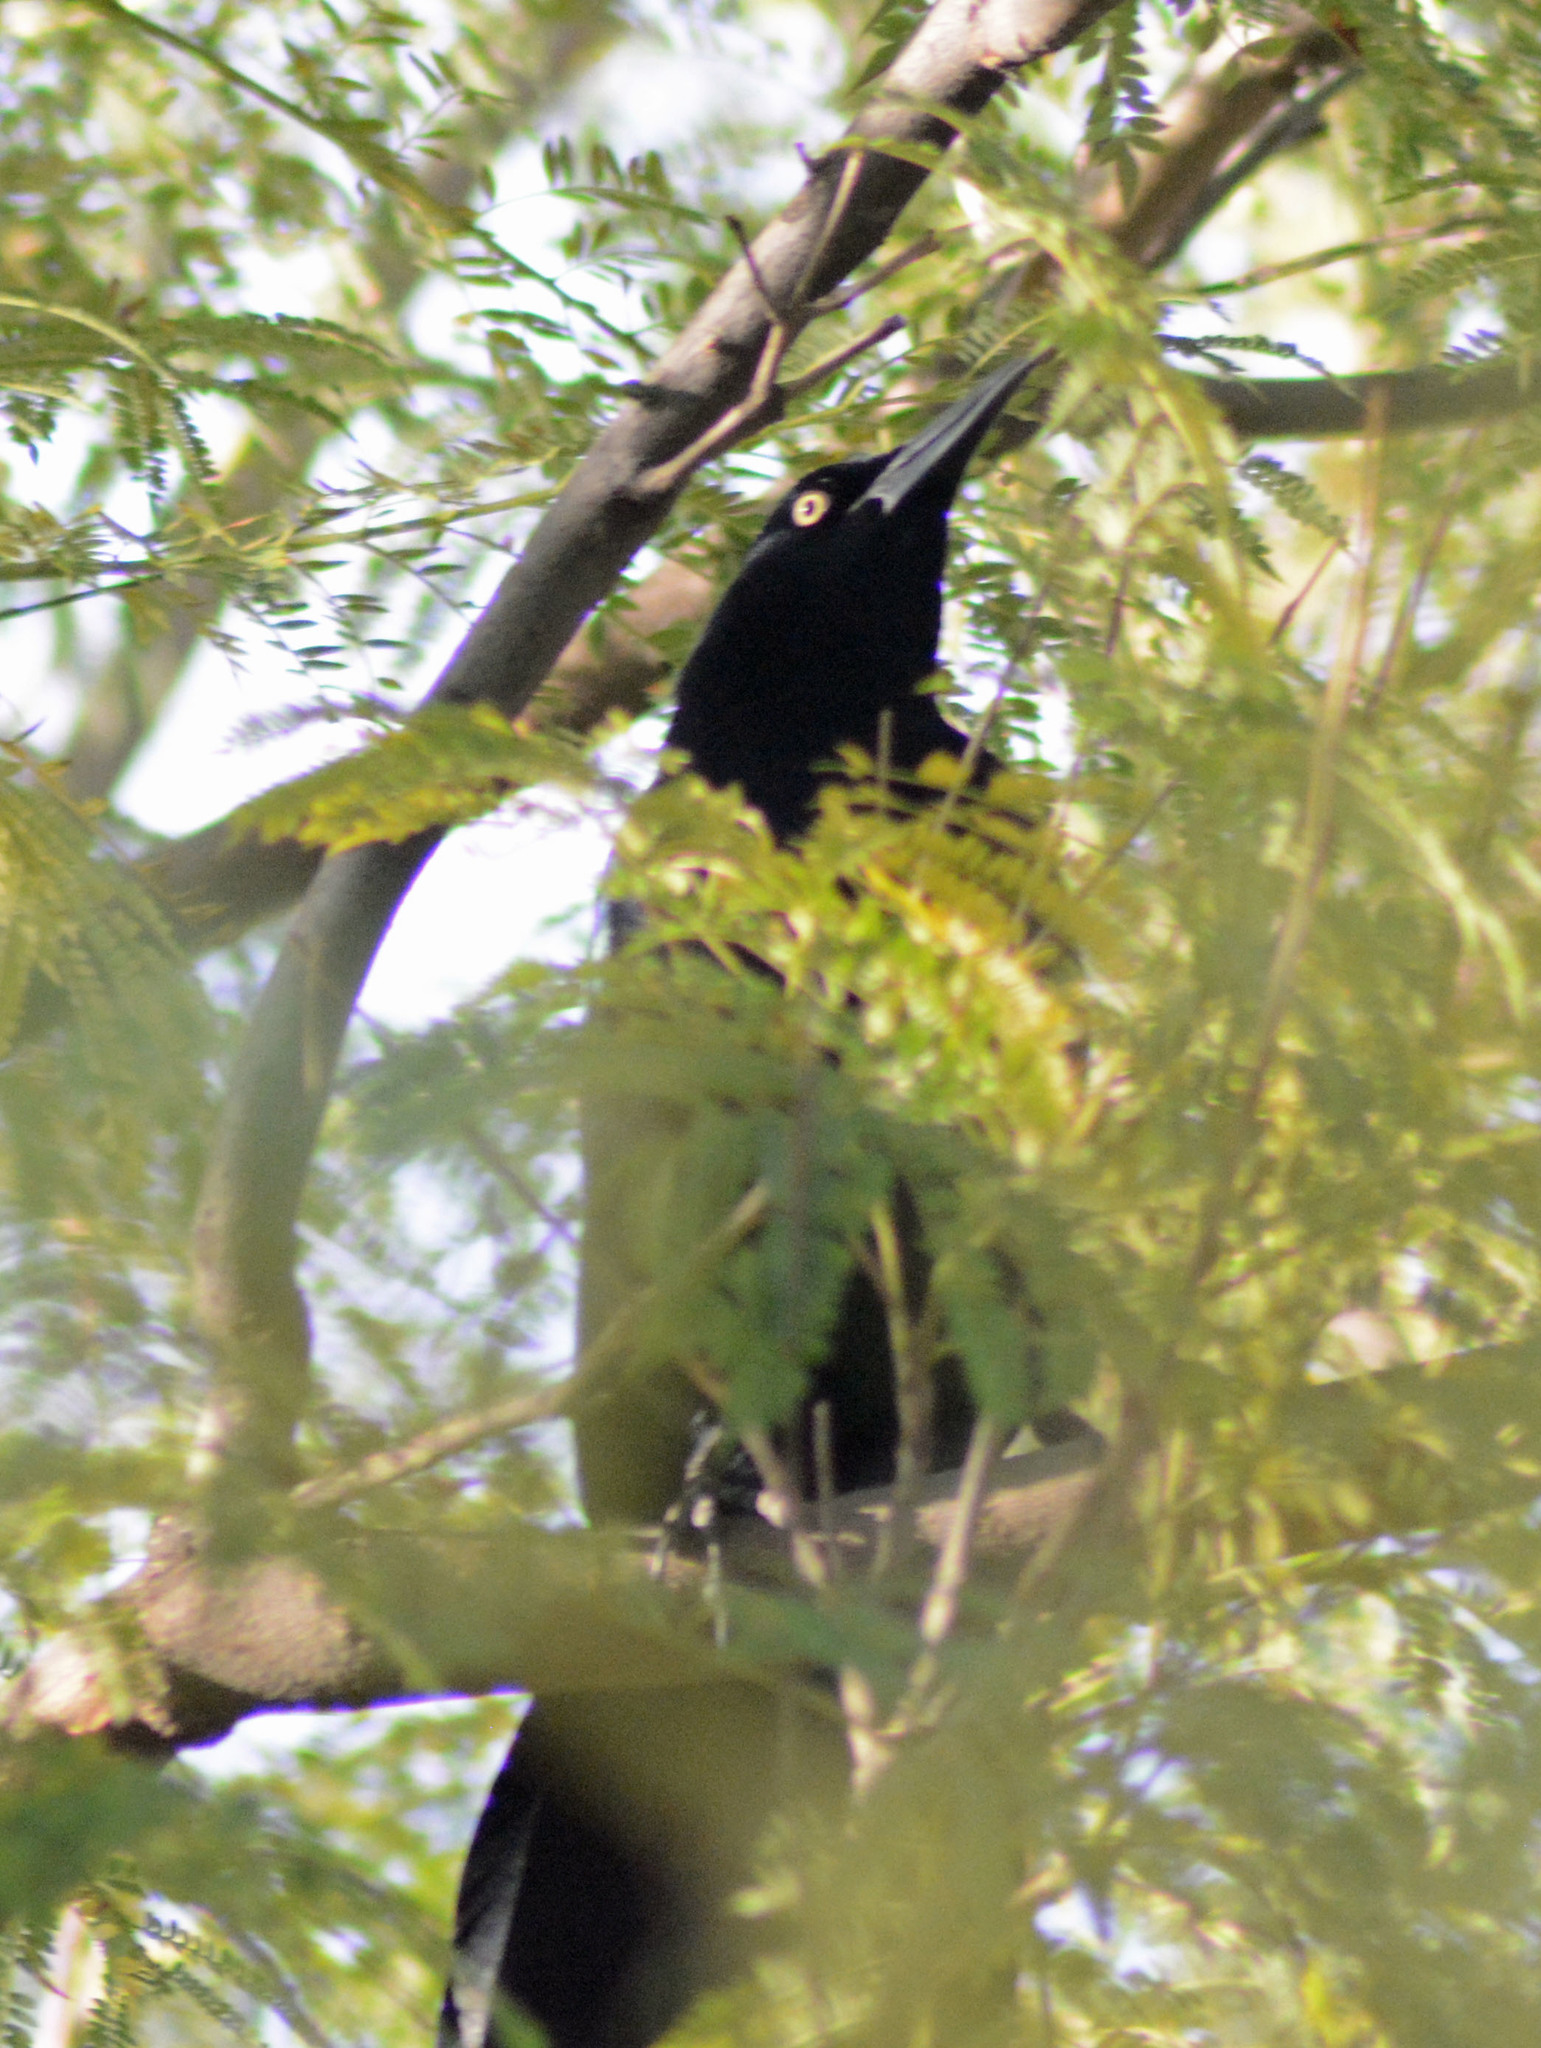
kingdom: Animalia
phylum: Chordata
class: Aves
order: Passeriformes
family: Icteridae
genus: Quiscalus
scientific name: Quiscalus mexicanus
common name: Great-tailed grackle
